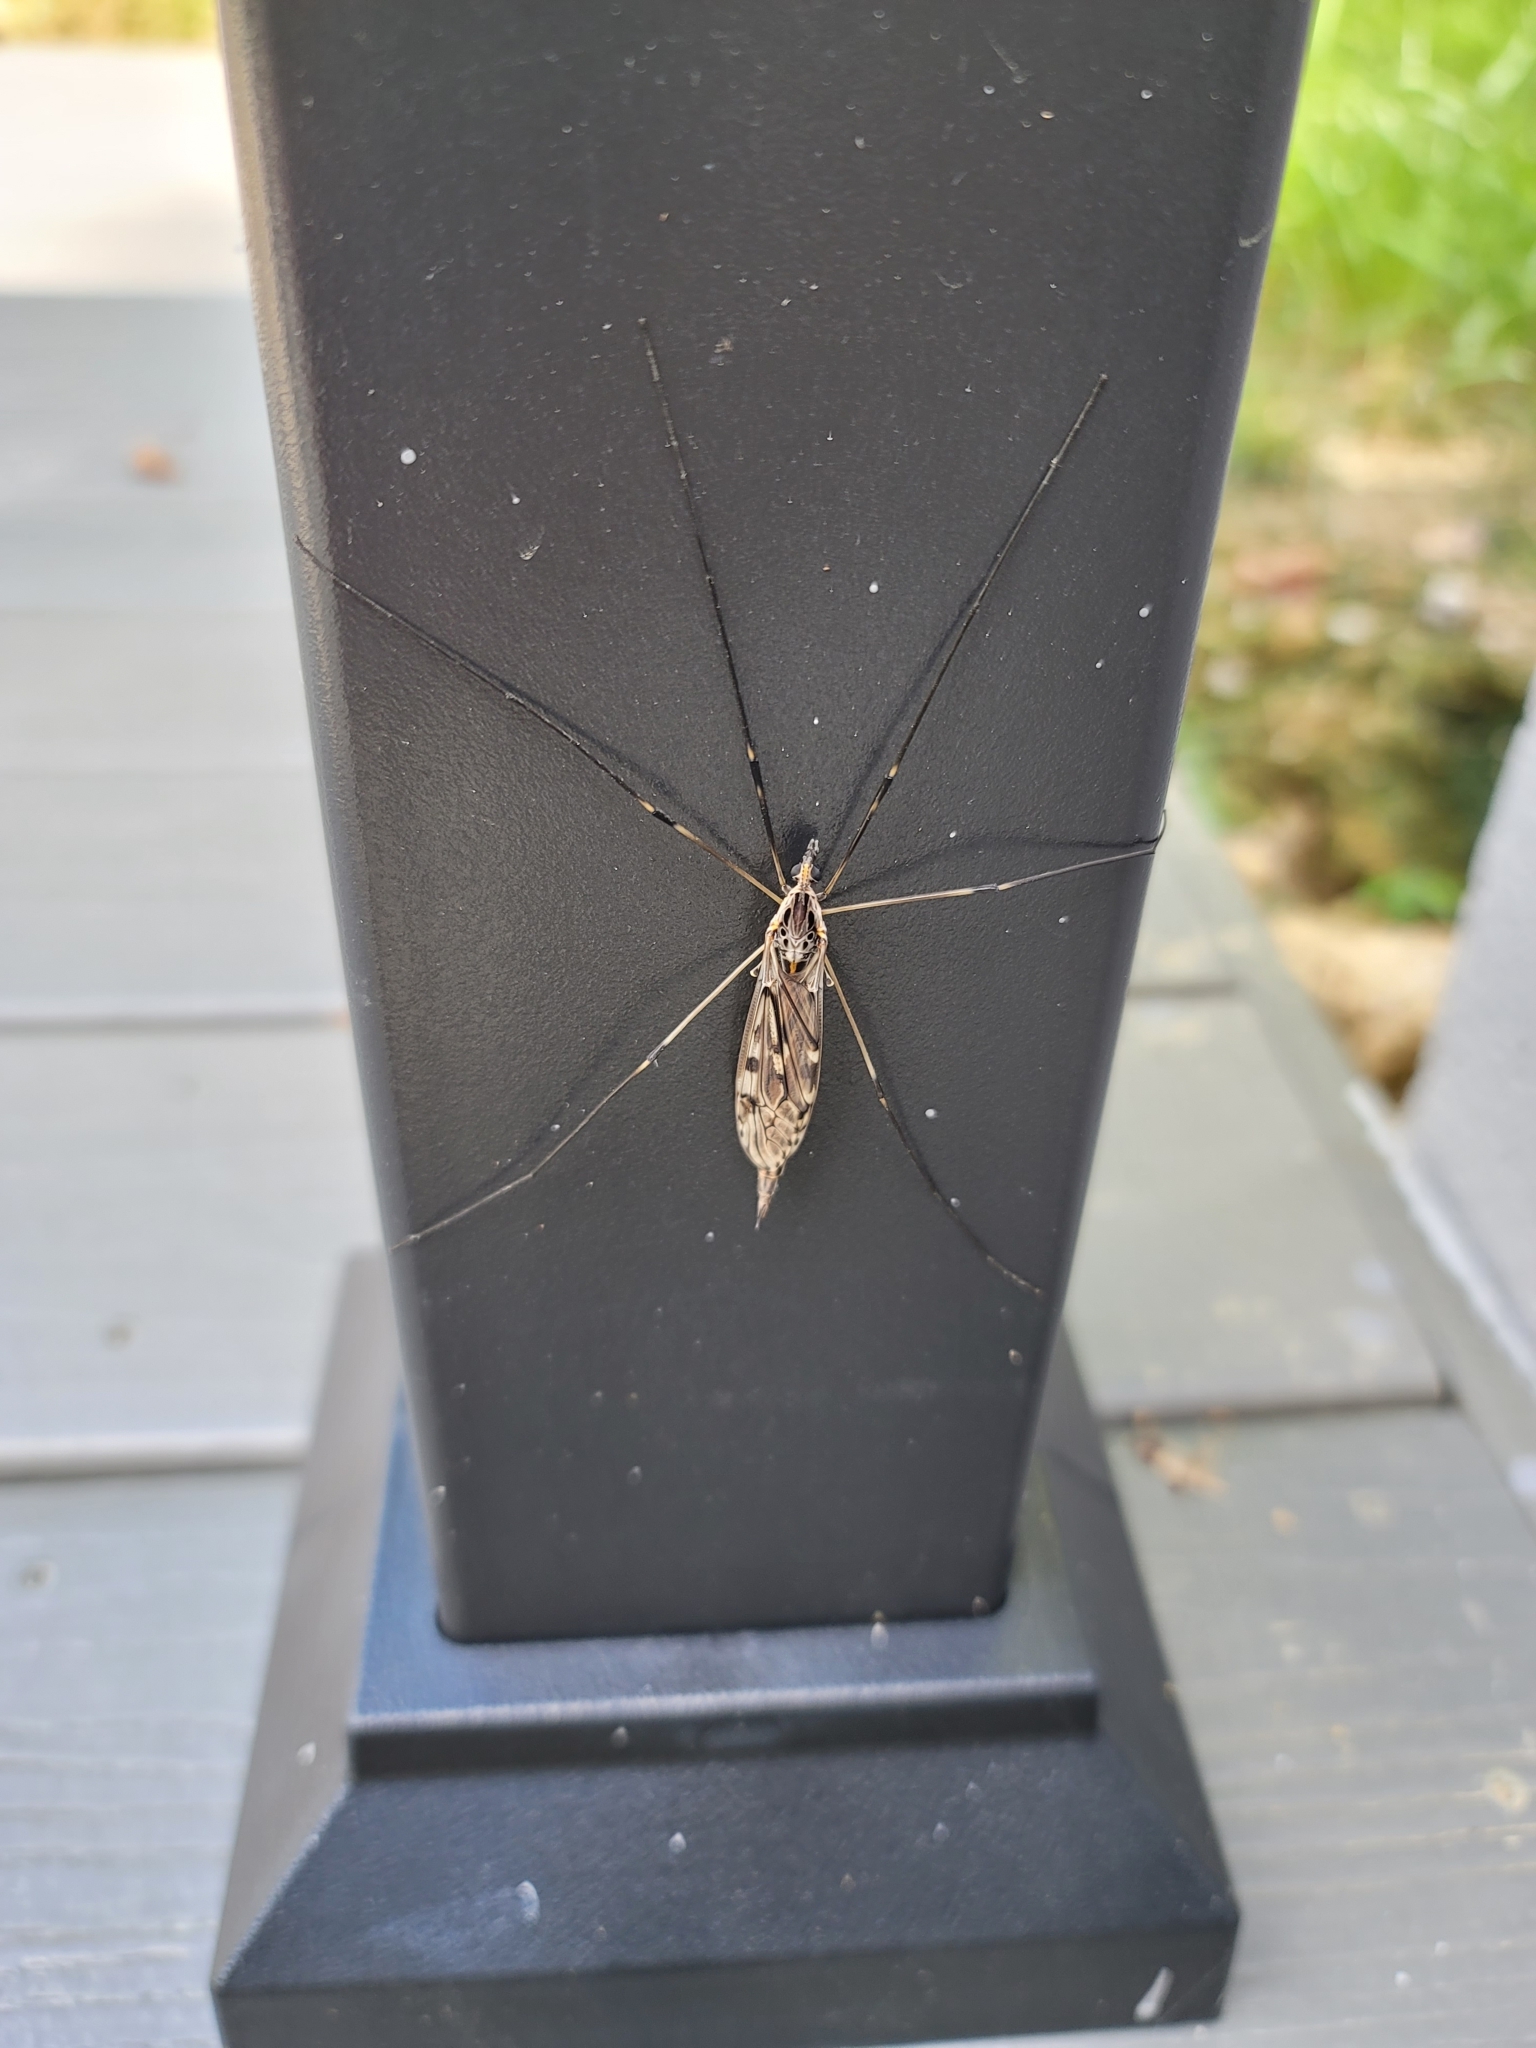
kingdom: Animalia
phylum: Arthropoda
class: Insecta
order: Diptera
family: Tipulidae
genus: Tipula
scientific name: Tipula abdominalis
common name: Giant crane fly
